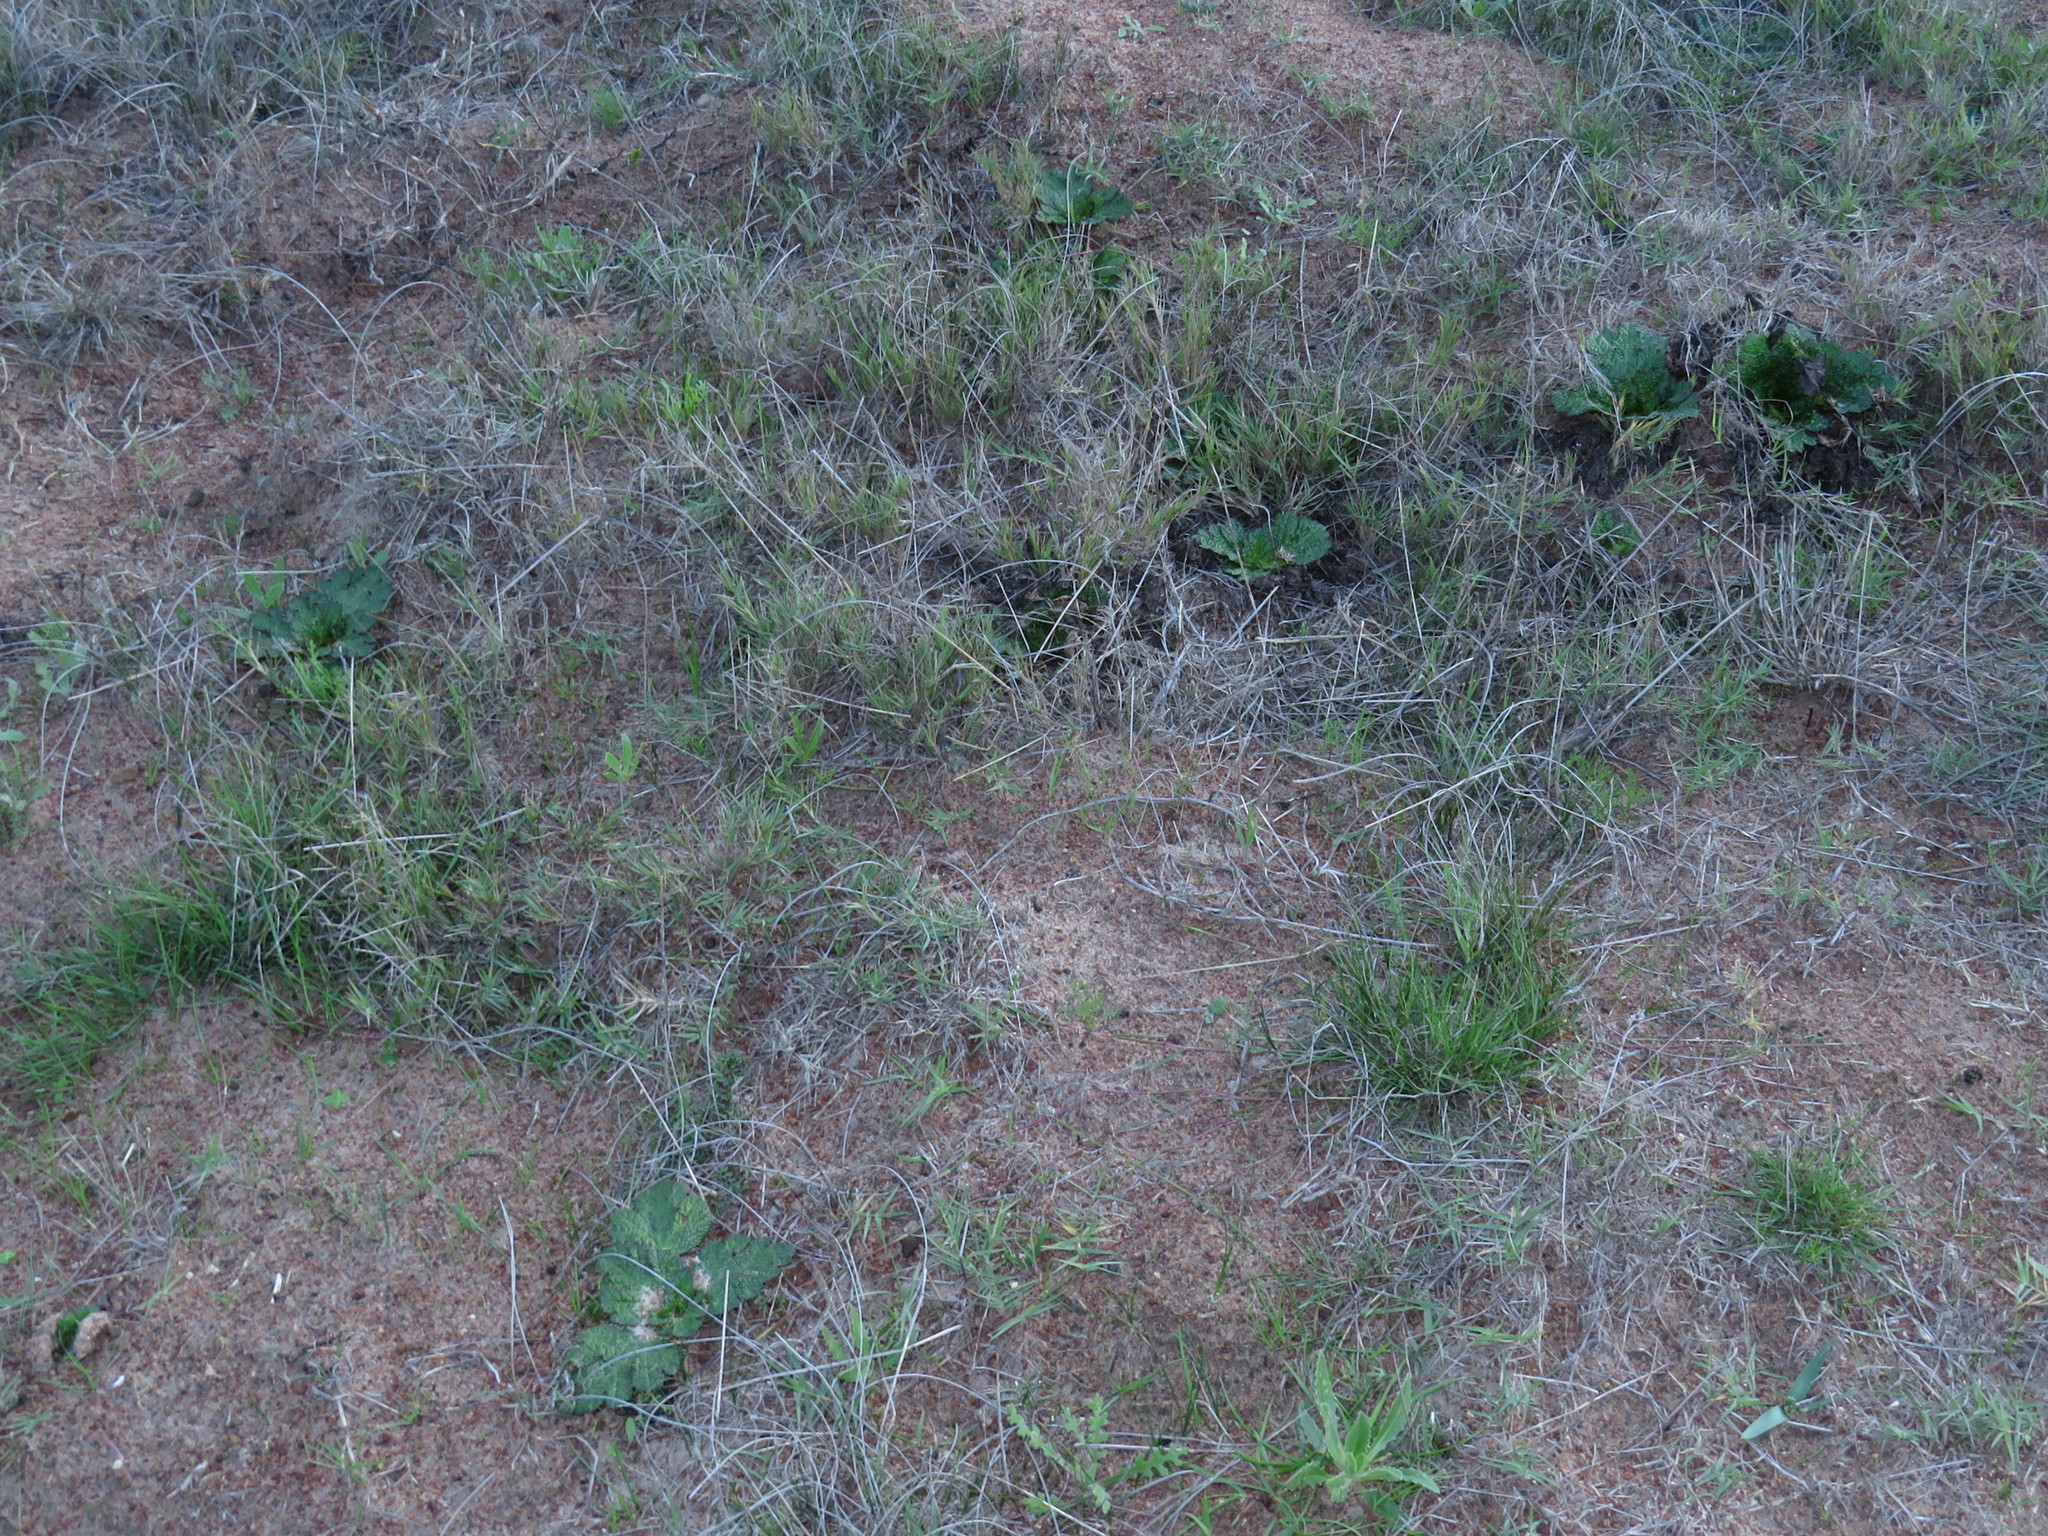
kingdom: Plantae
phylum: Tracheophyta
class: Magnoliopsida
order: Apiales
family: Apiaceae
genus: Arctopus
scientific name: Arctopus echinatus
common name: Platdoring
